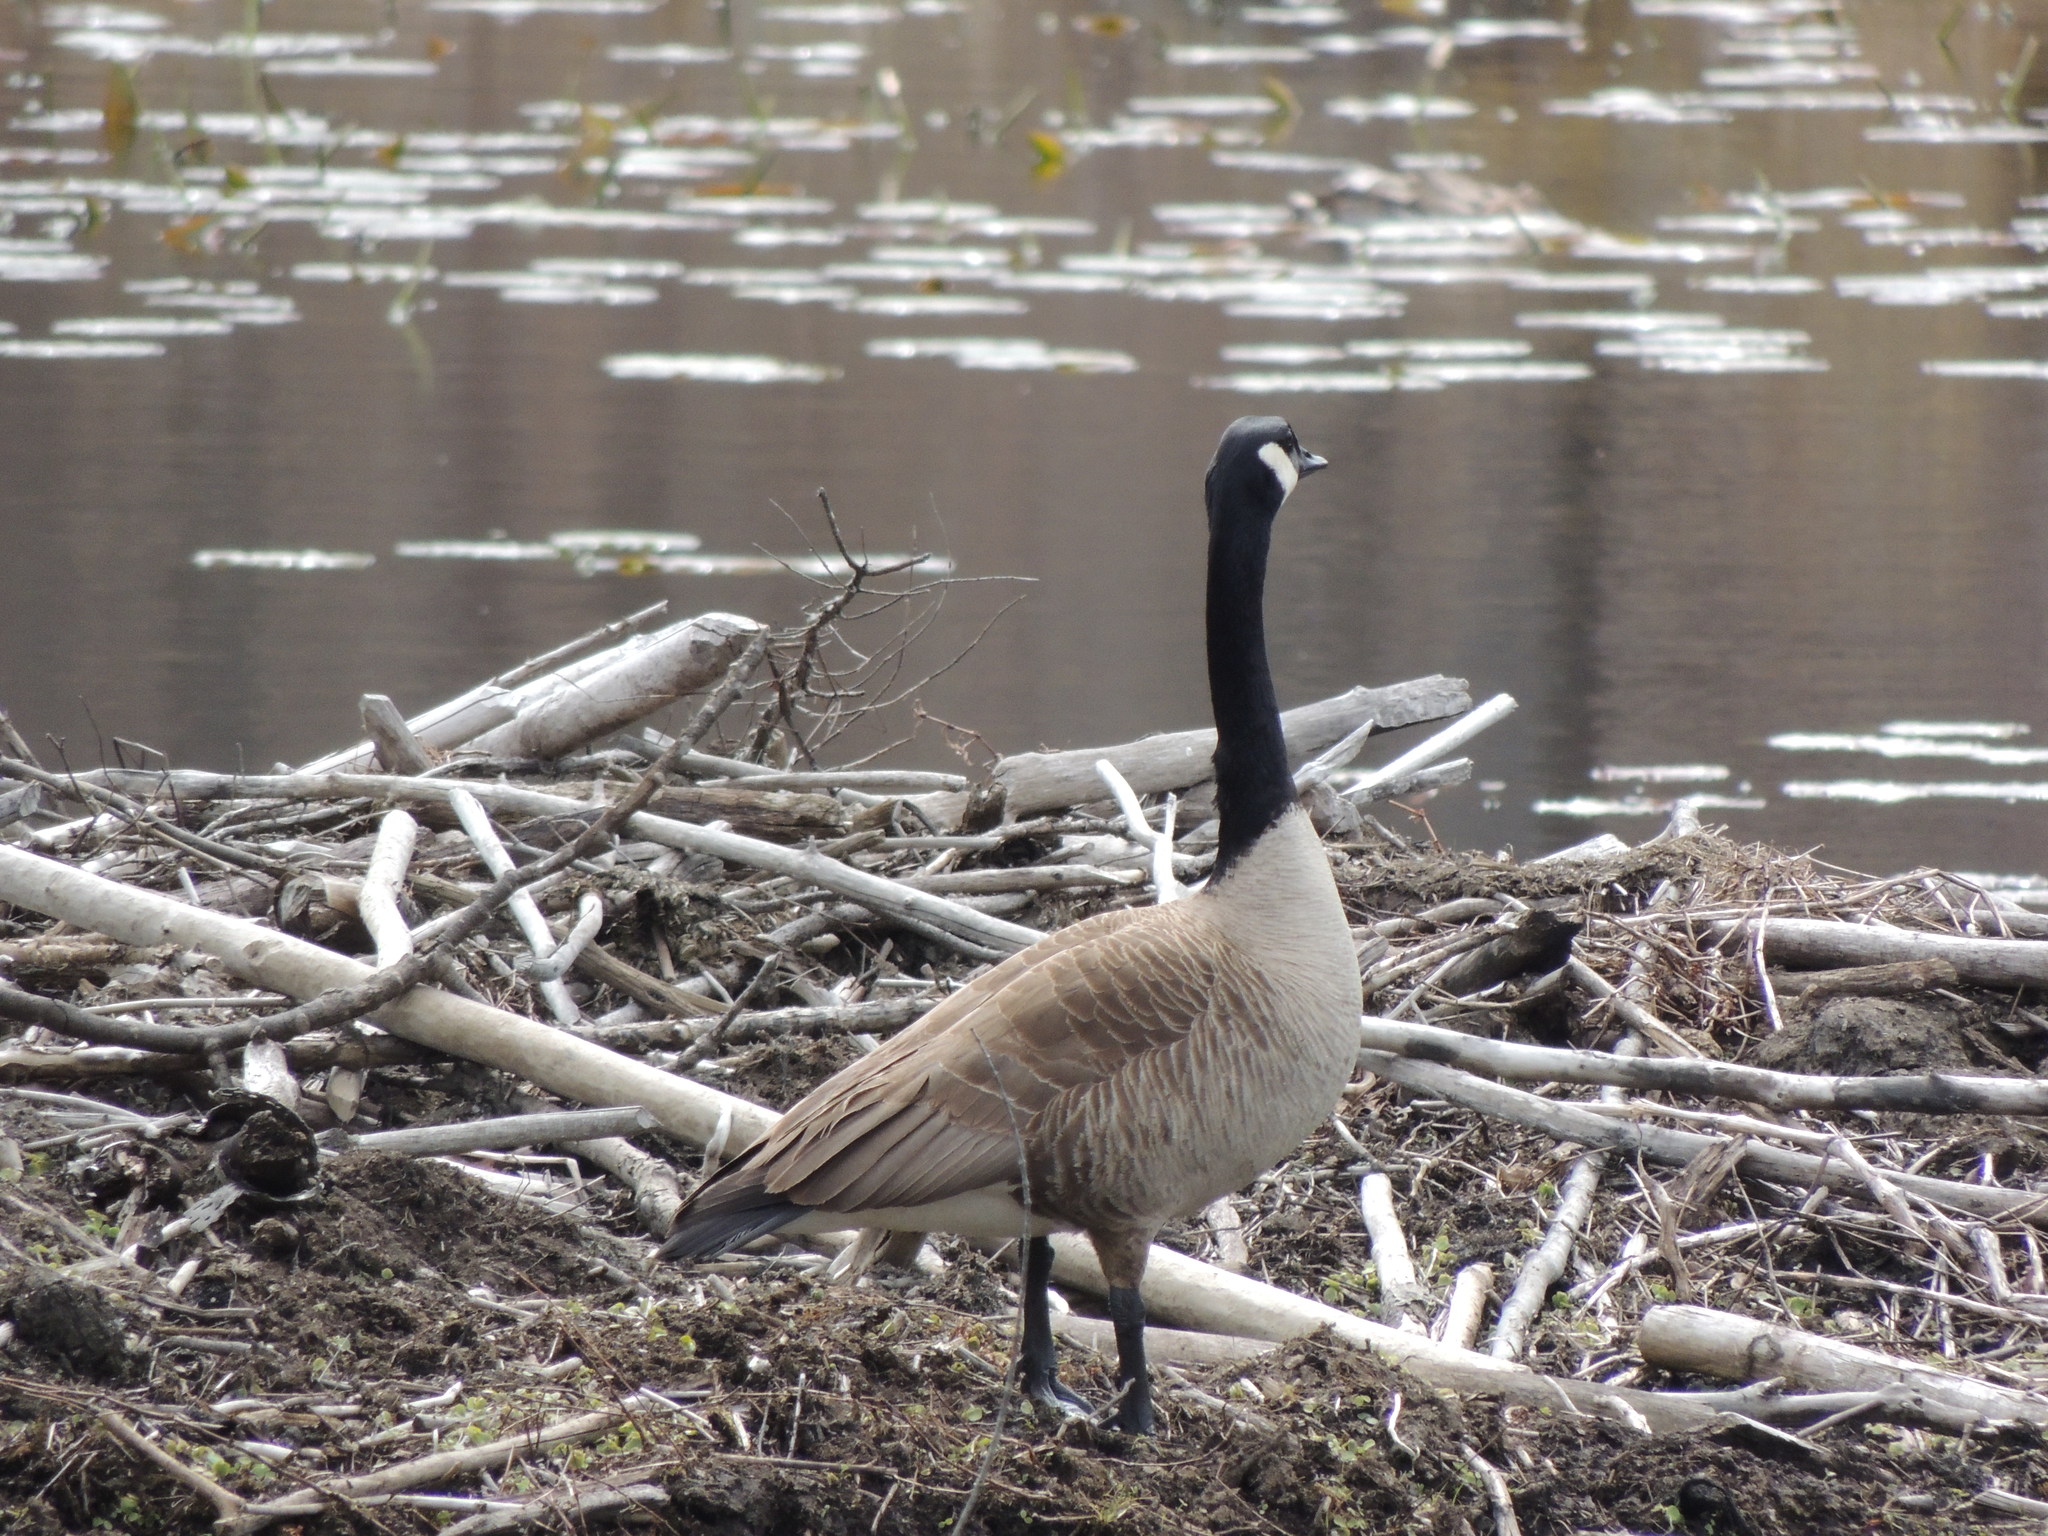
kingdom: Animalia
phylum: Chordata
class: Aves
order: Anseriformes
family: Anatidae
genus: Branta
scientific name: Branta canadensis
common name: Canada goose
